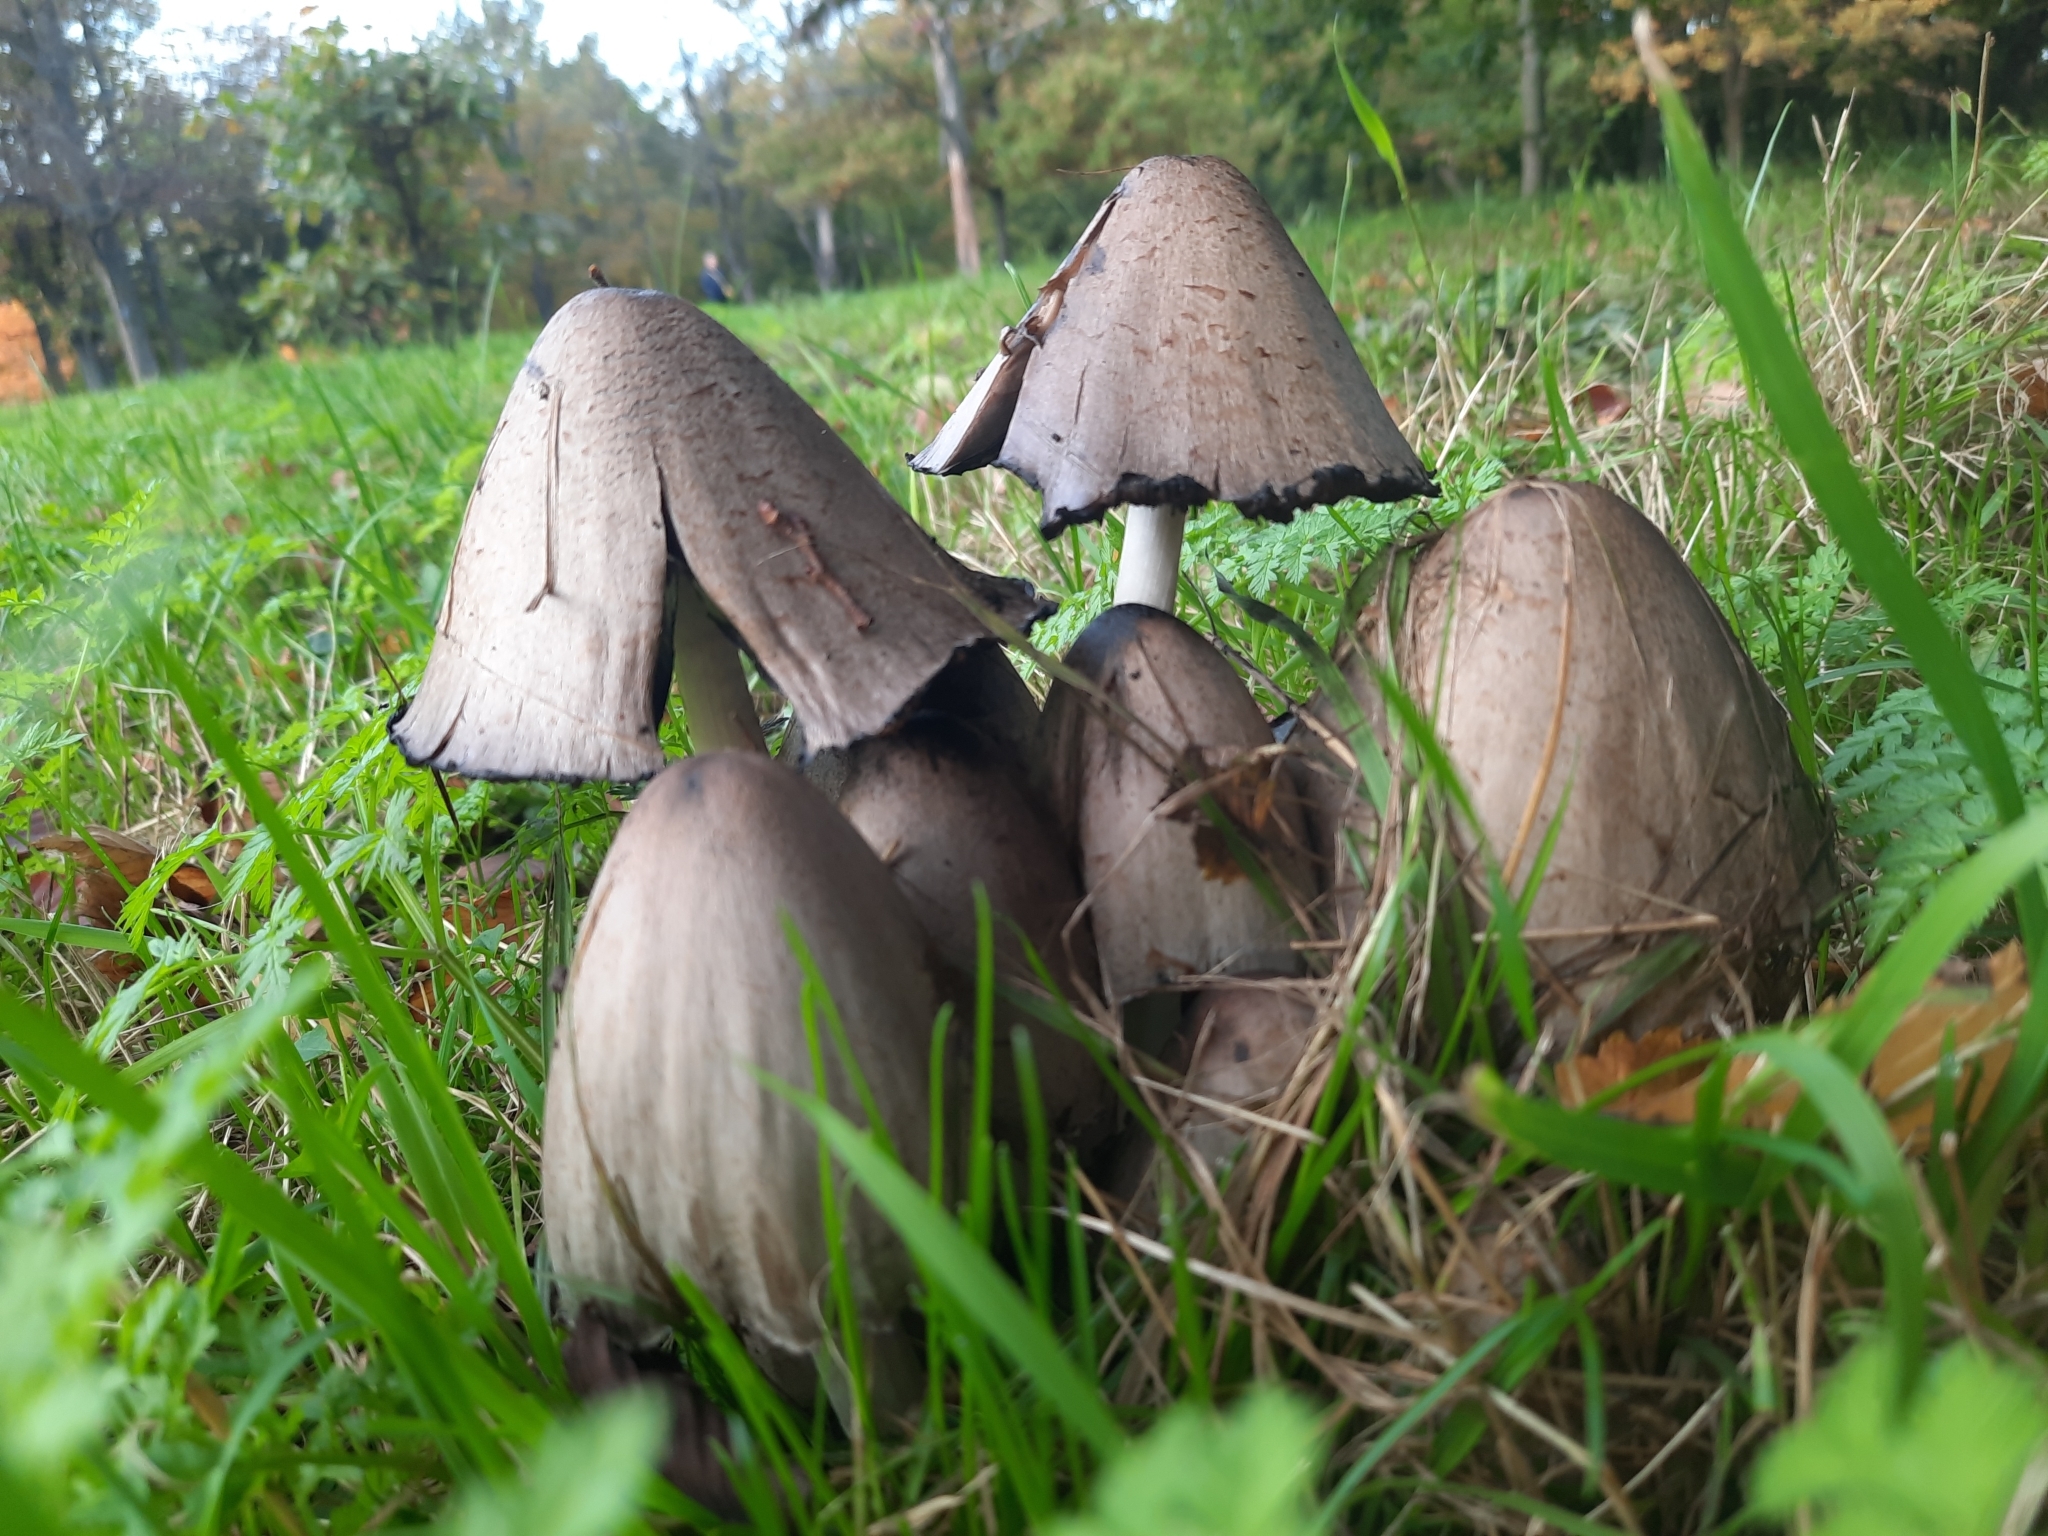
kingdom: Fungi
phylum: Basidiomycota
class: Agaricomycetes
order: Agaricales
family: Psathyrellaceae
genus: Coprinopsis
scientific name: Coprinopsis atramentaria
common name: Common ink-cap
